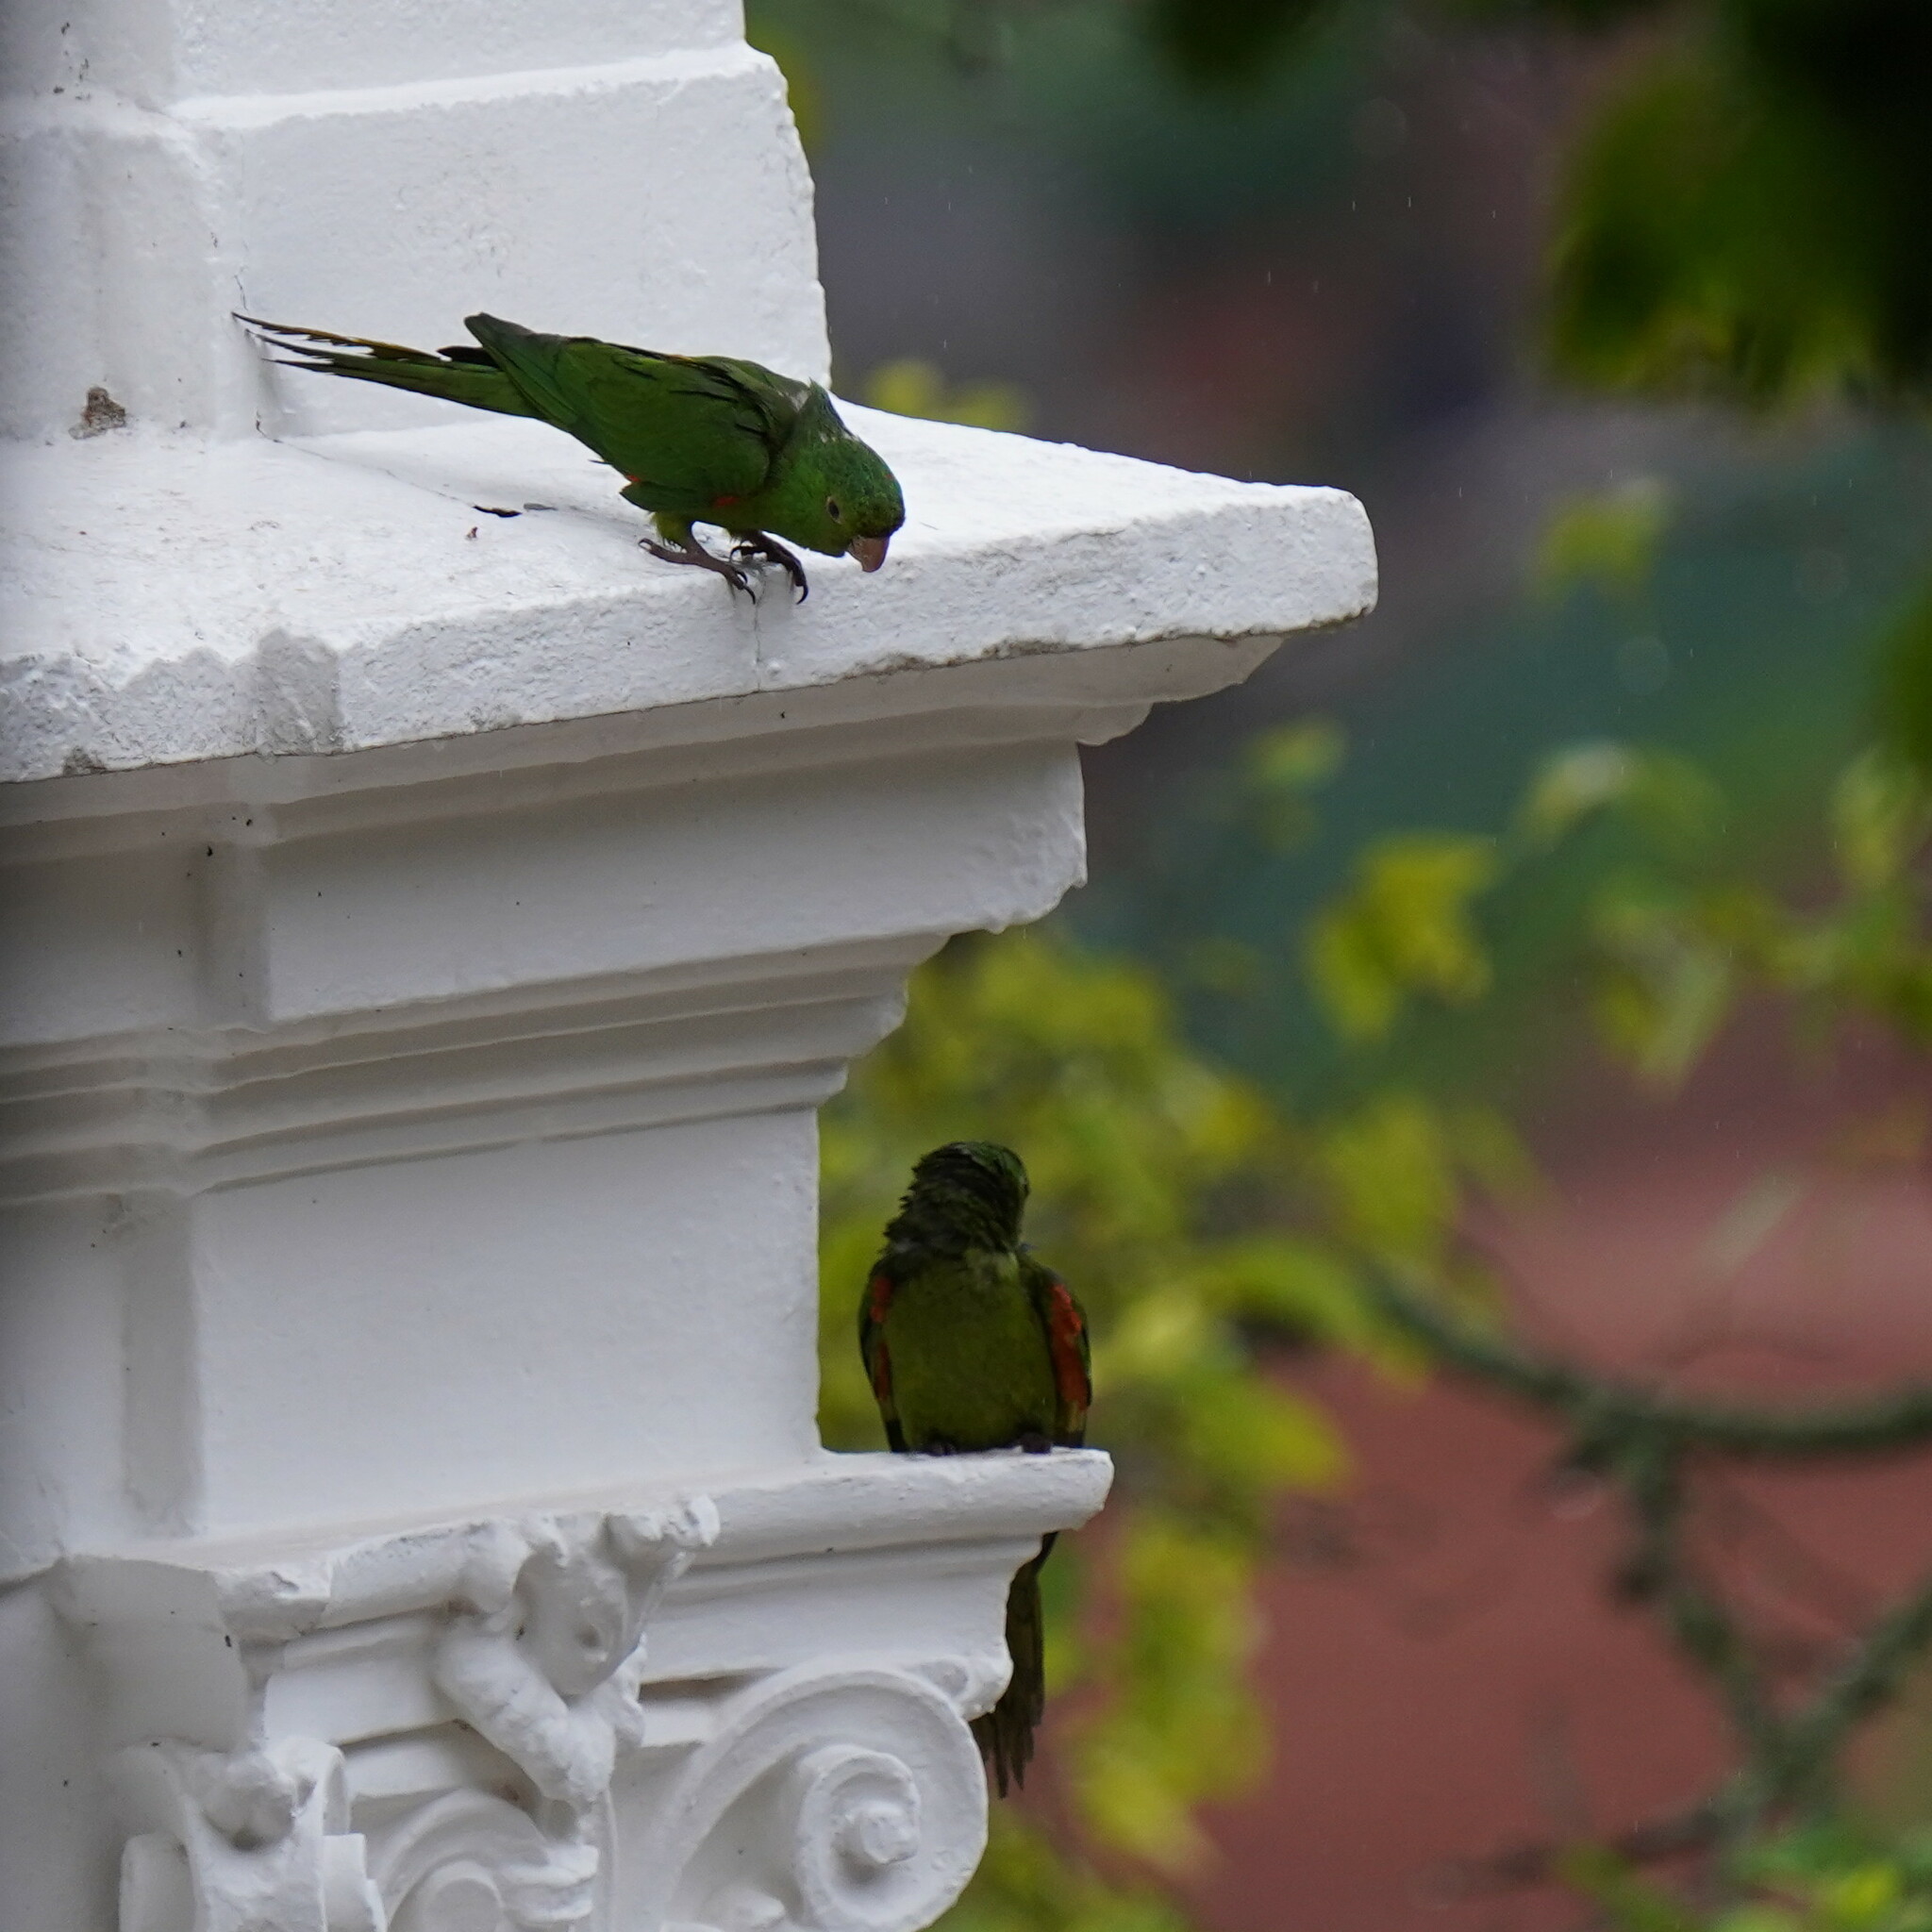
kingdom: Animalia
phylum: Chordata
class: Aves
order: Psittaciformes
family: Psittacidae
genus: Aratinga
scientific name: Aratinga leucophthalma
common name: White-eyed parakeet
